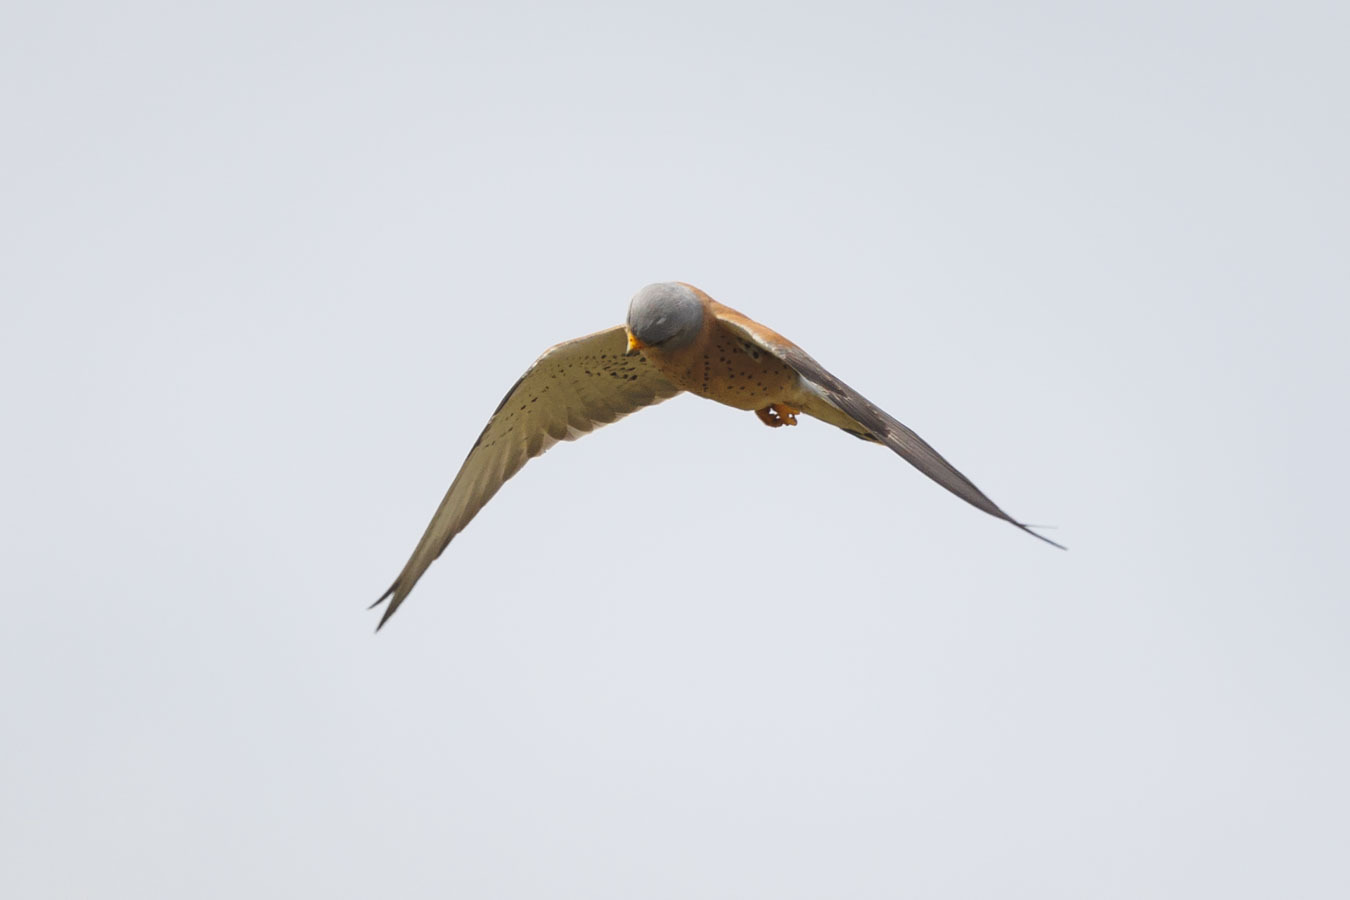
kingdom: Animalia
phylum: Chordata
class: Aves
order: Falconiformes
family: Falconidae
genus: Falco
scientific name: Falco naumanni
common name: Lesser kestrel
